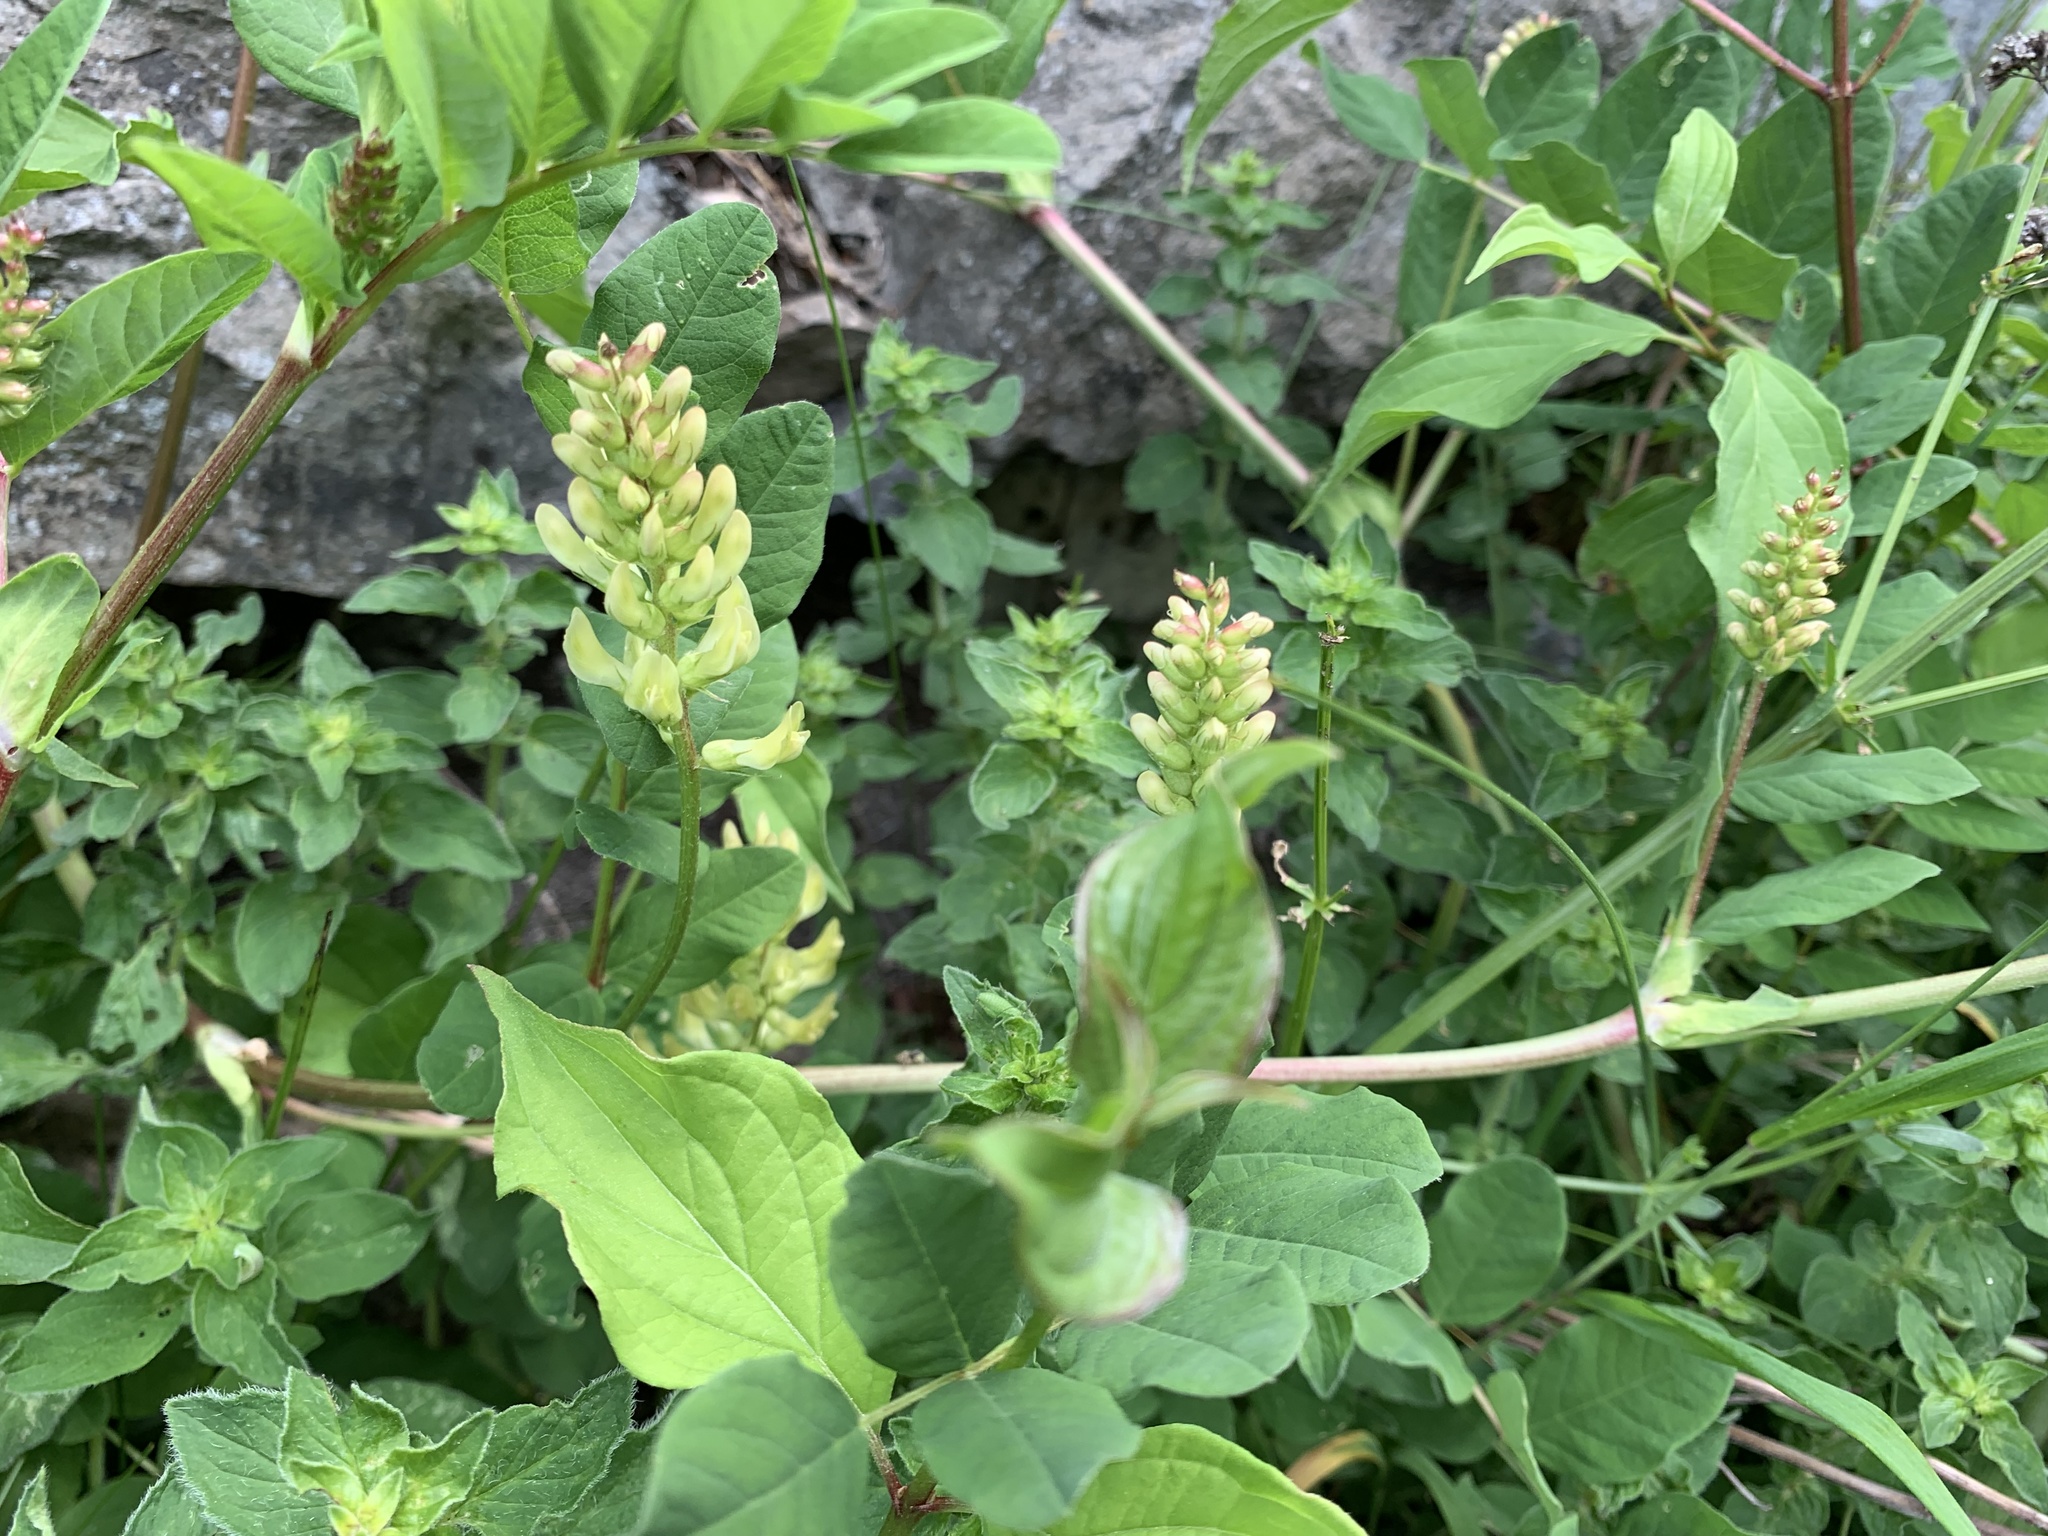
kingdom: Plantae
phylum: Tracheophyta
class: Magnoliopsida
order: Fabales
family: Fabaceae
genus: Astragalus
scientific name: Astragalus glycyphyllos
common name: Wild liquorice
